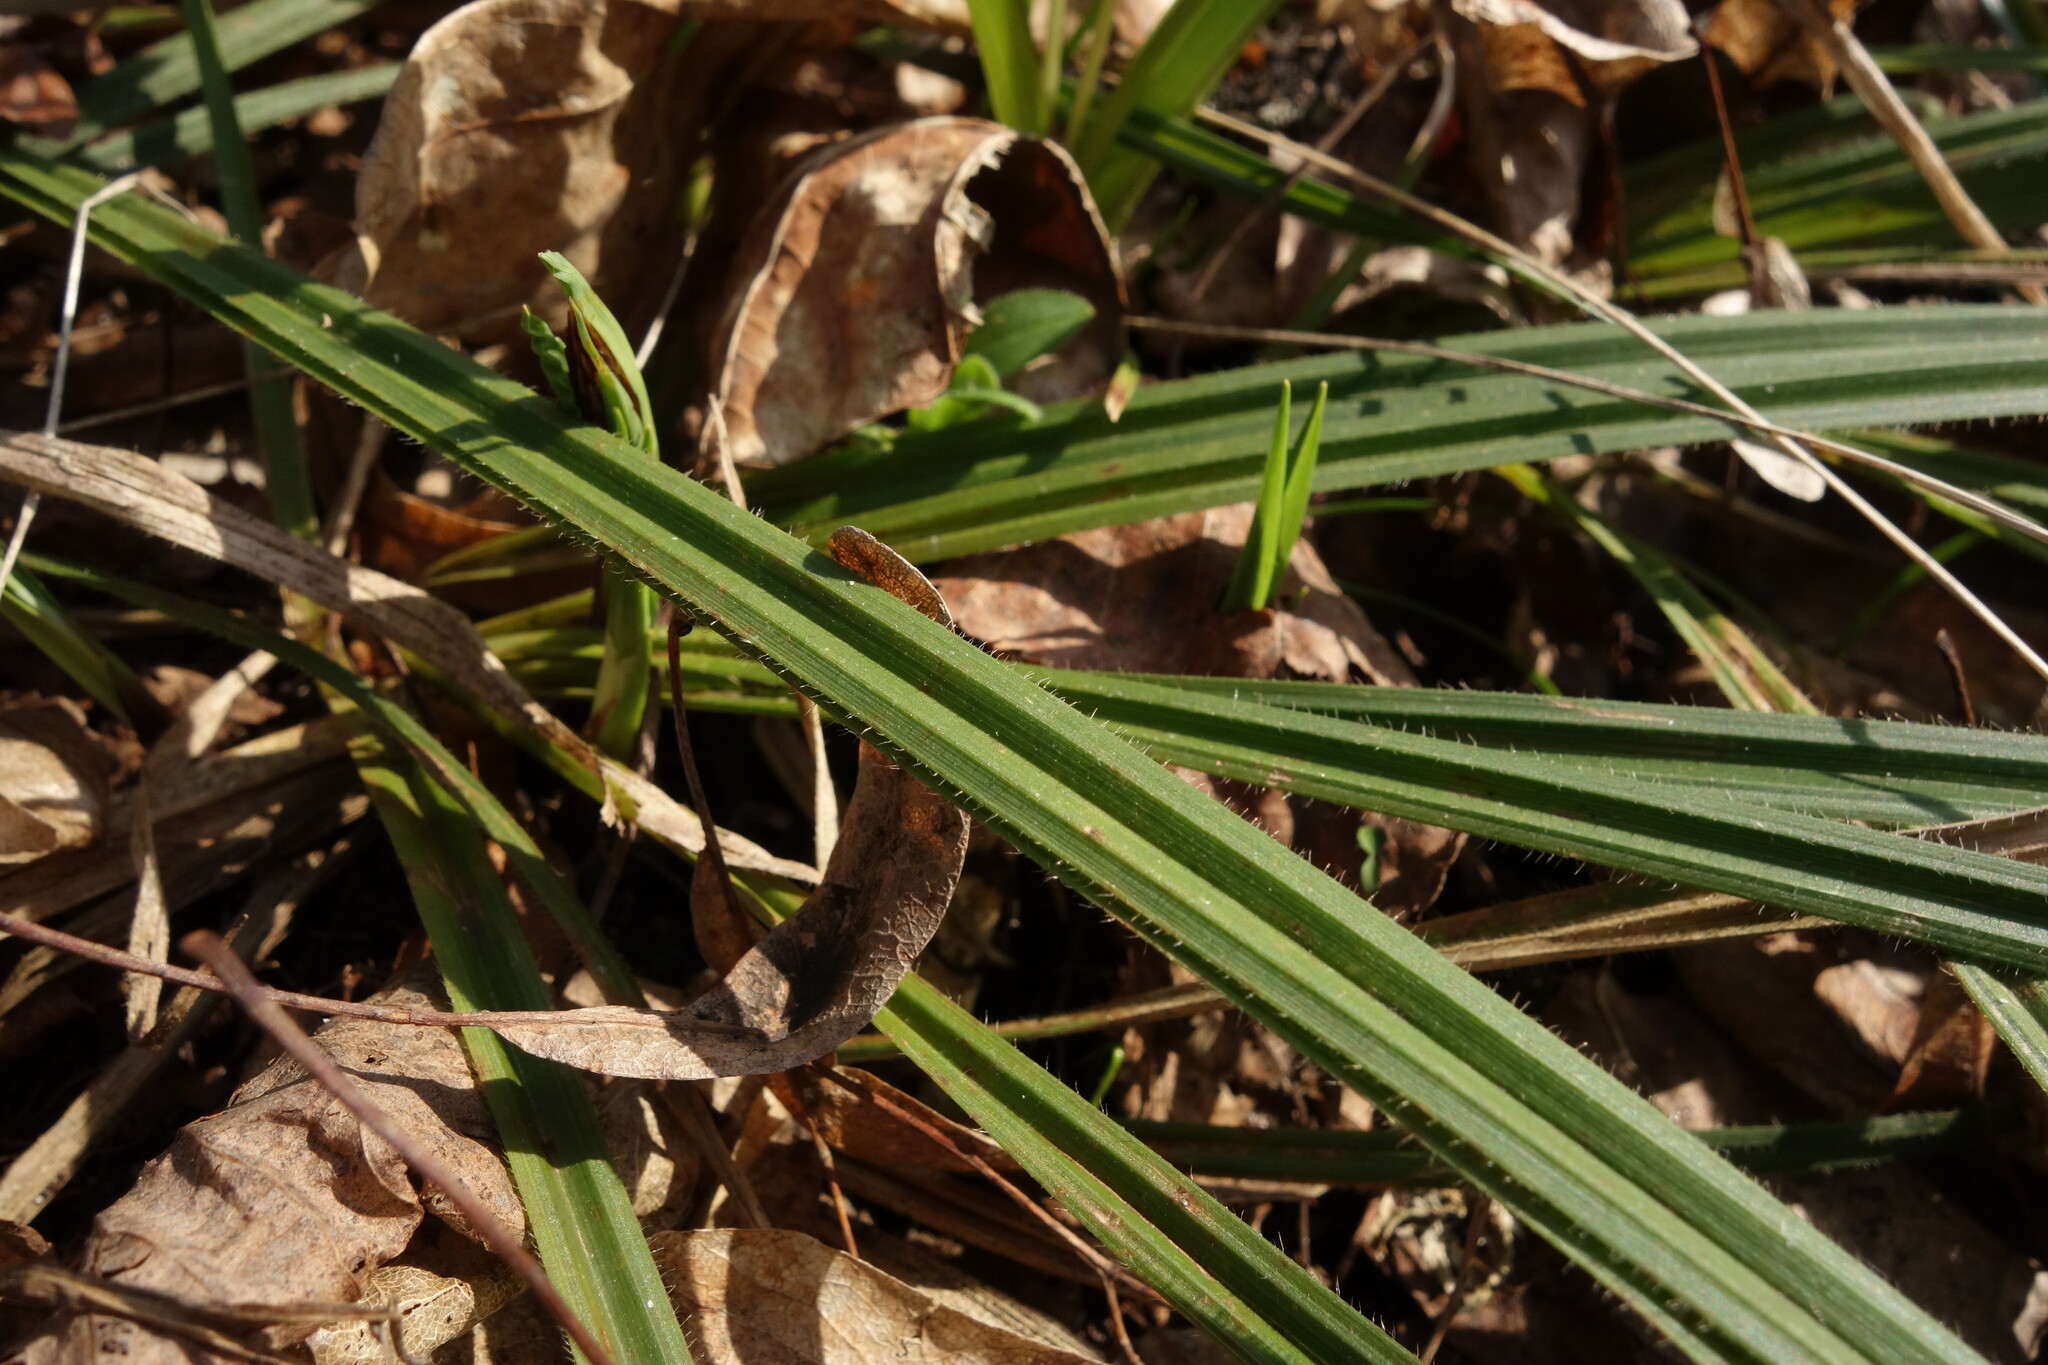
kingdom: Plantae
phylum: Tracheophyta
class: Liliopsida
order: Poales
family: Cyperaceae
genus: Carex
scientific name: Carex pilosa
